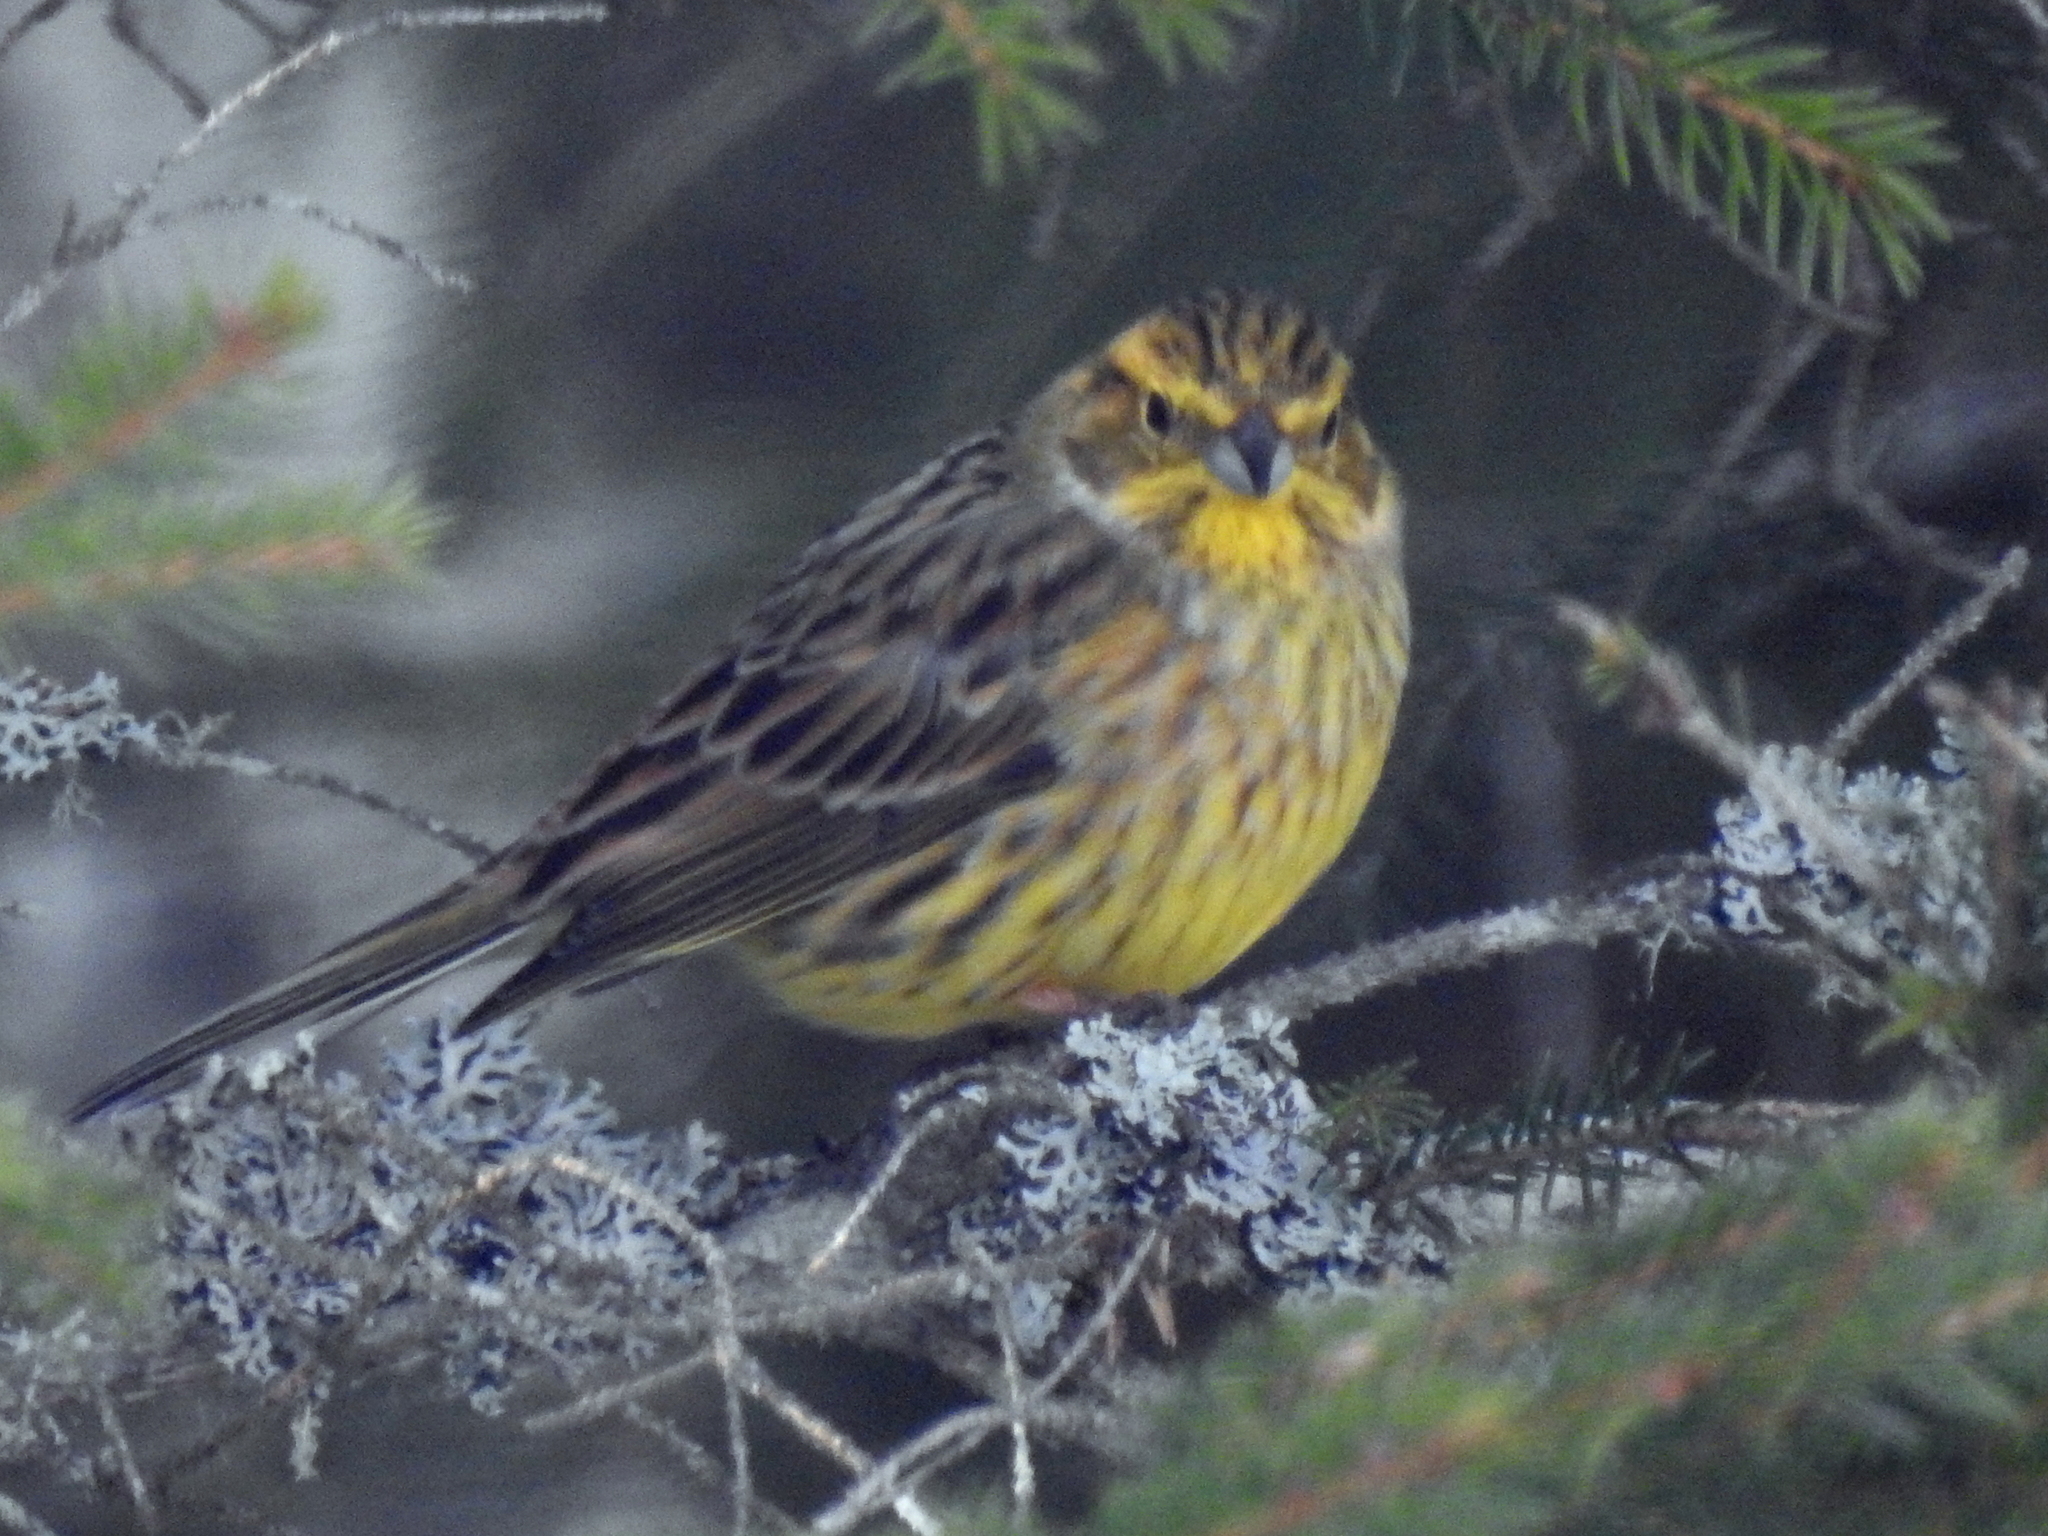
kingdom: Animalia
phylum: Chordata
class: Aves
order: Passeriformes
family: Emberizidae
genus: Emberiza
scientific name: Emberiza citrinella
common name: Yellowhammer
